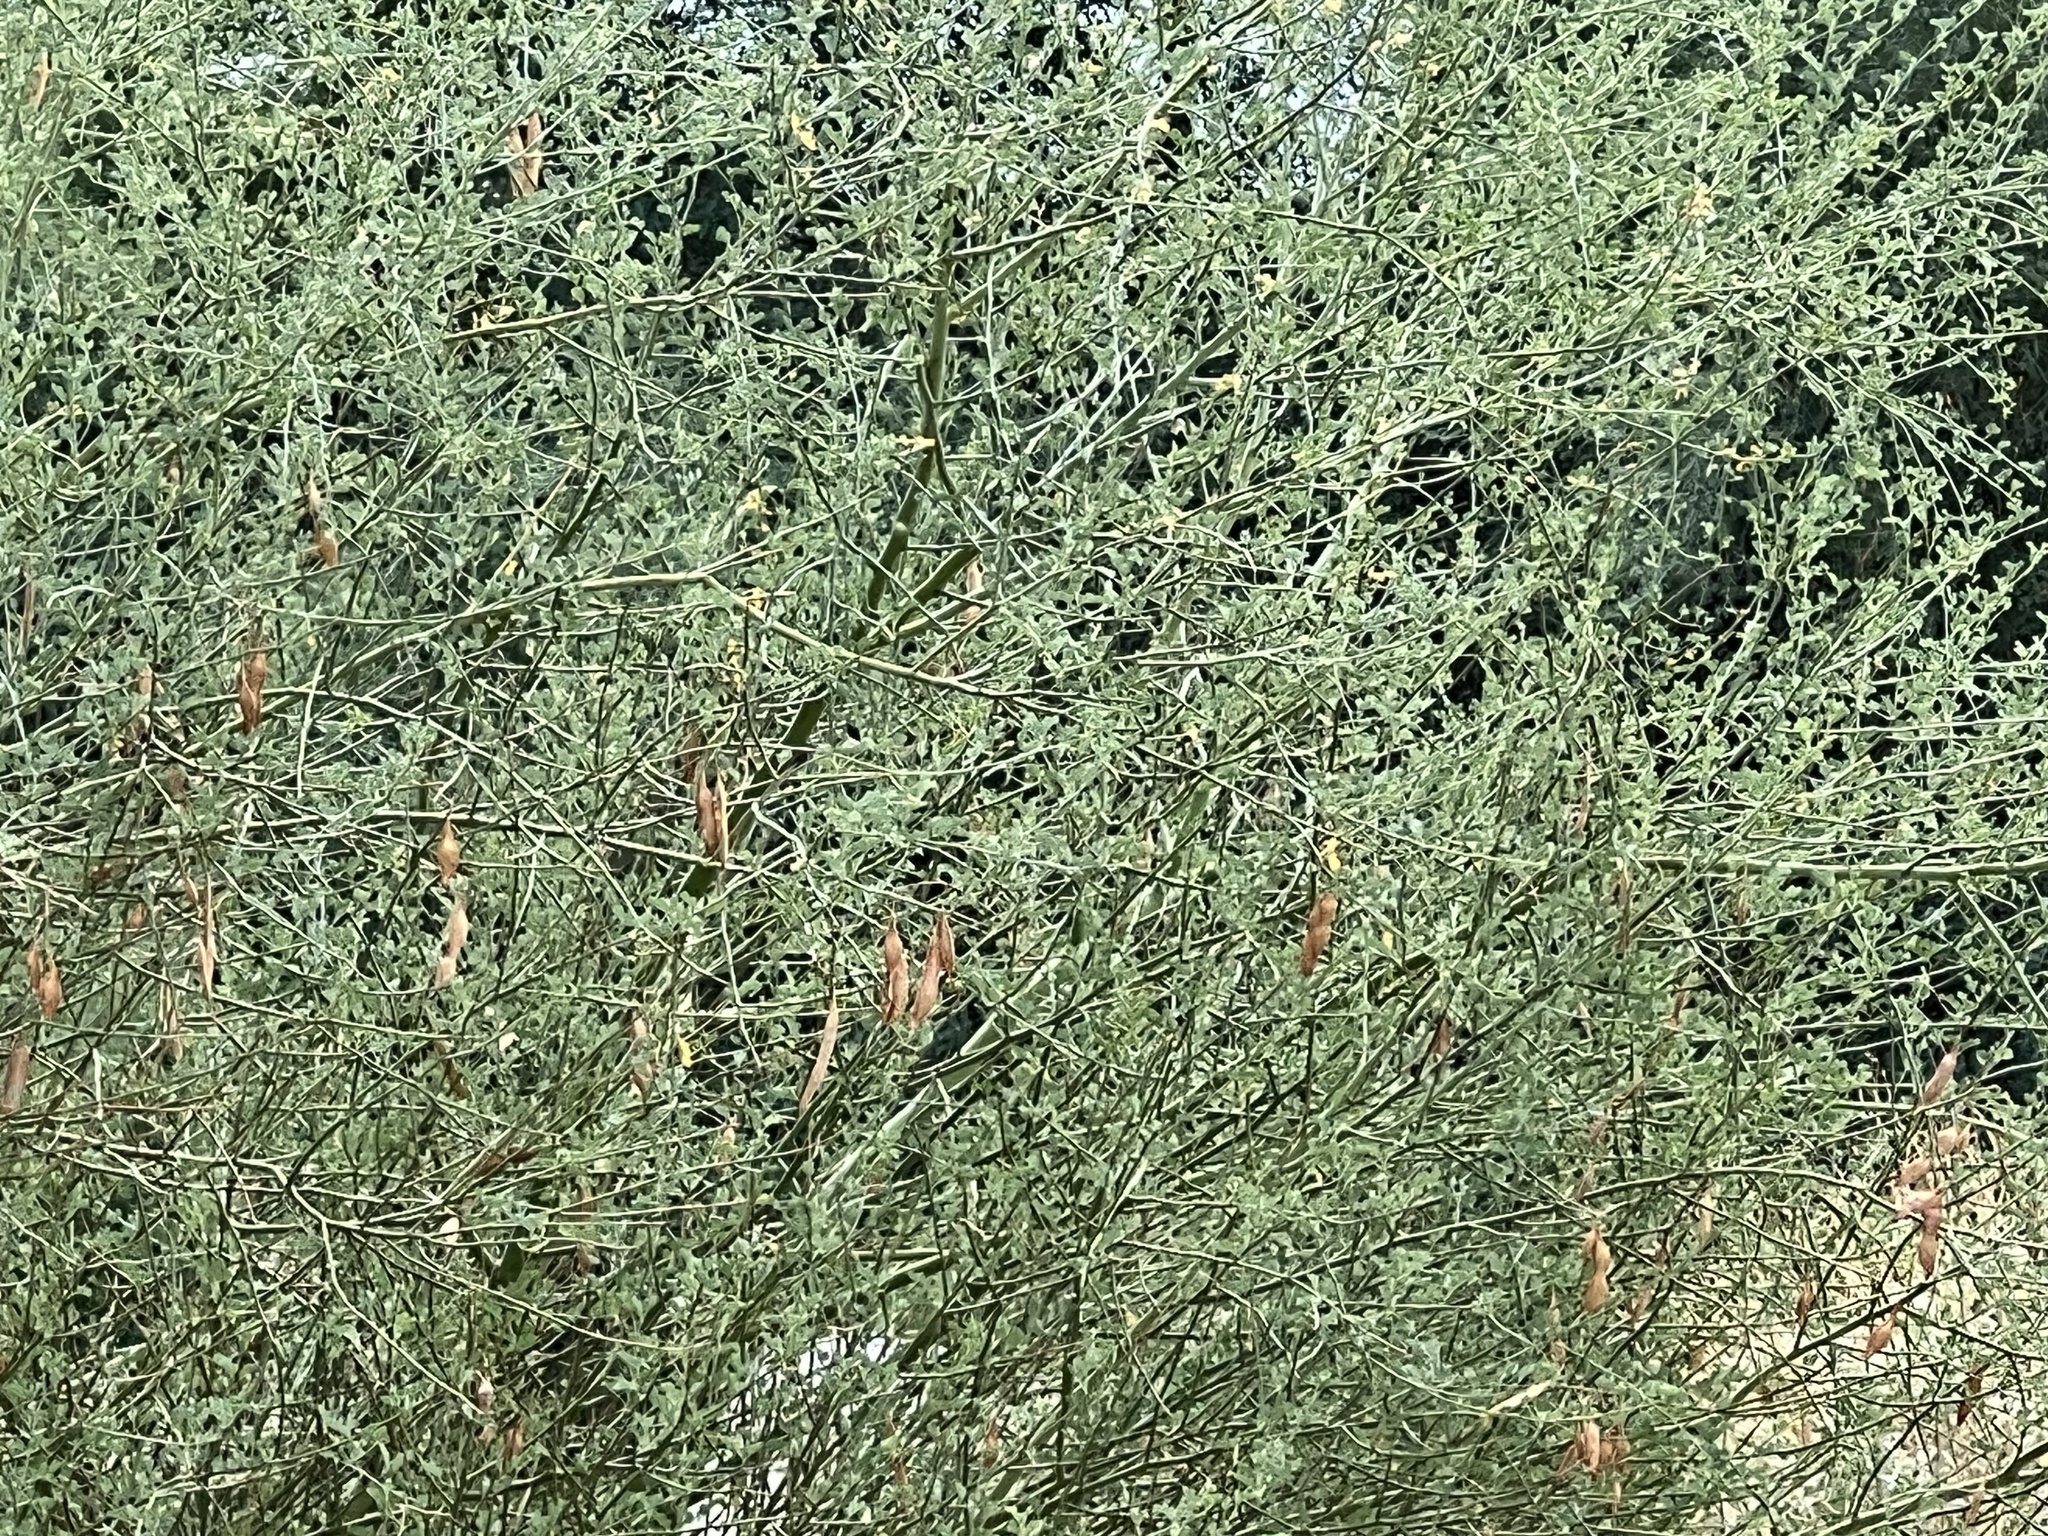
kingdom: Plantae
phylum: Tracheophyta
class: Magnoliopsida
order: Fabales
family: Fabaceae
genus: Parkinsonia
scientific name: Parkinsonia florida
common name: Blue paloverde
